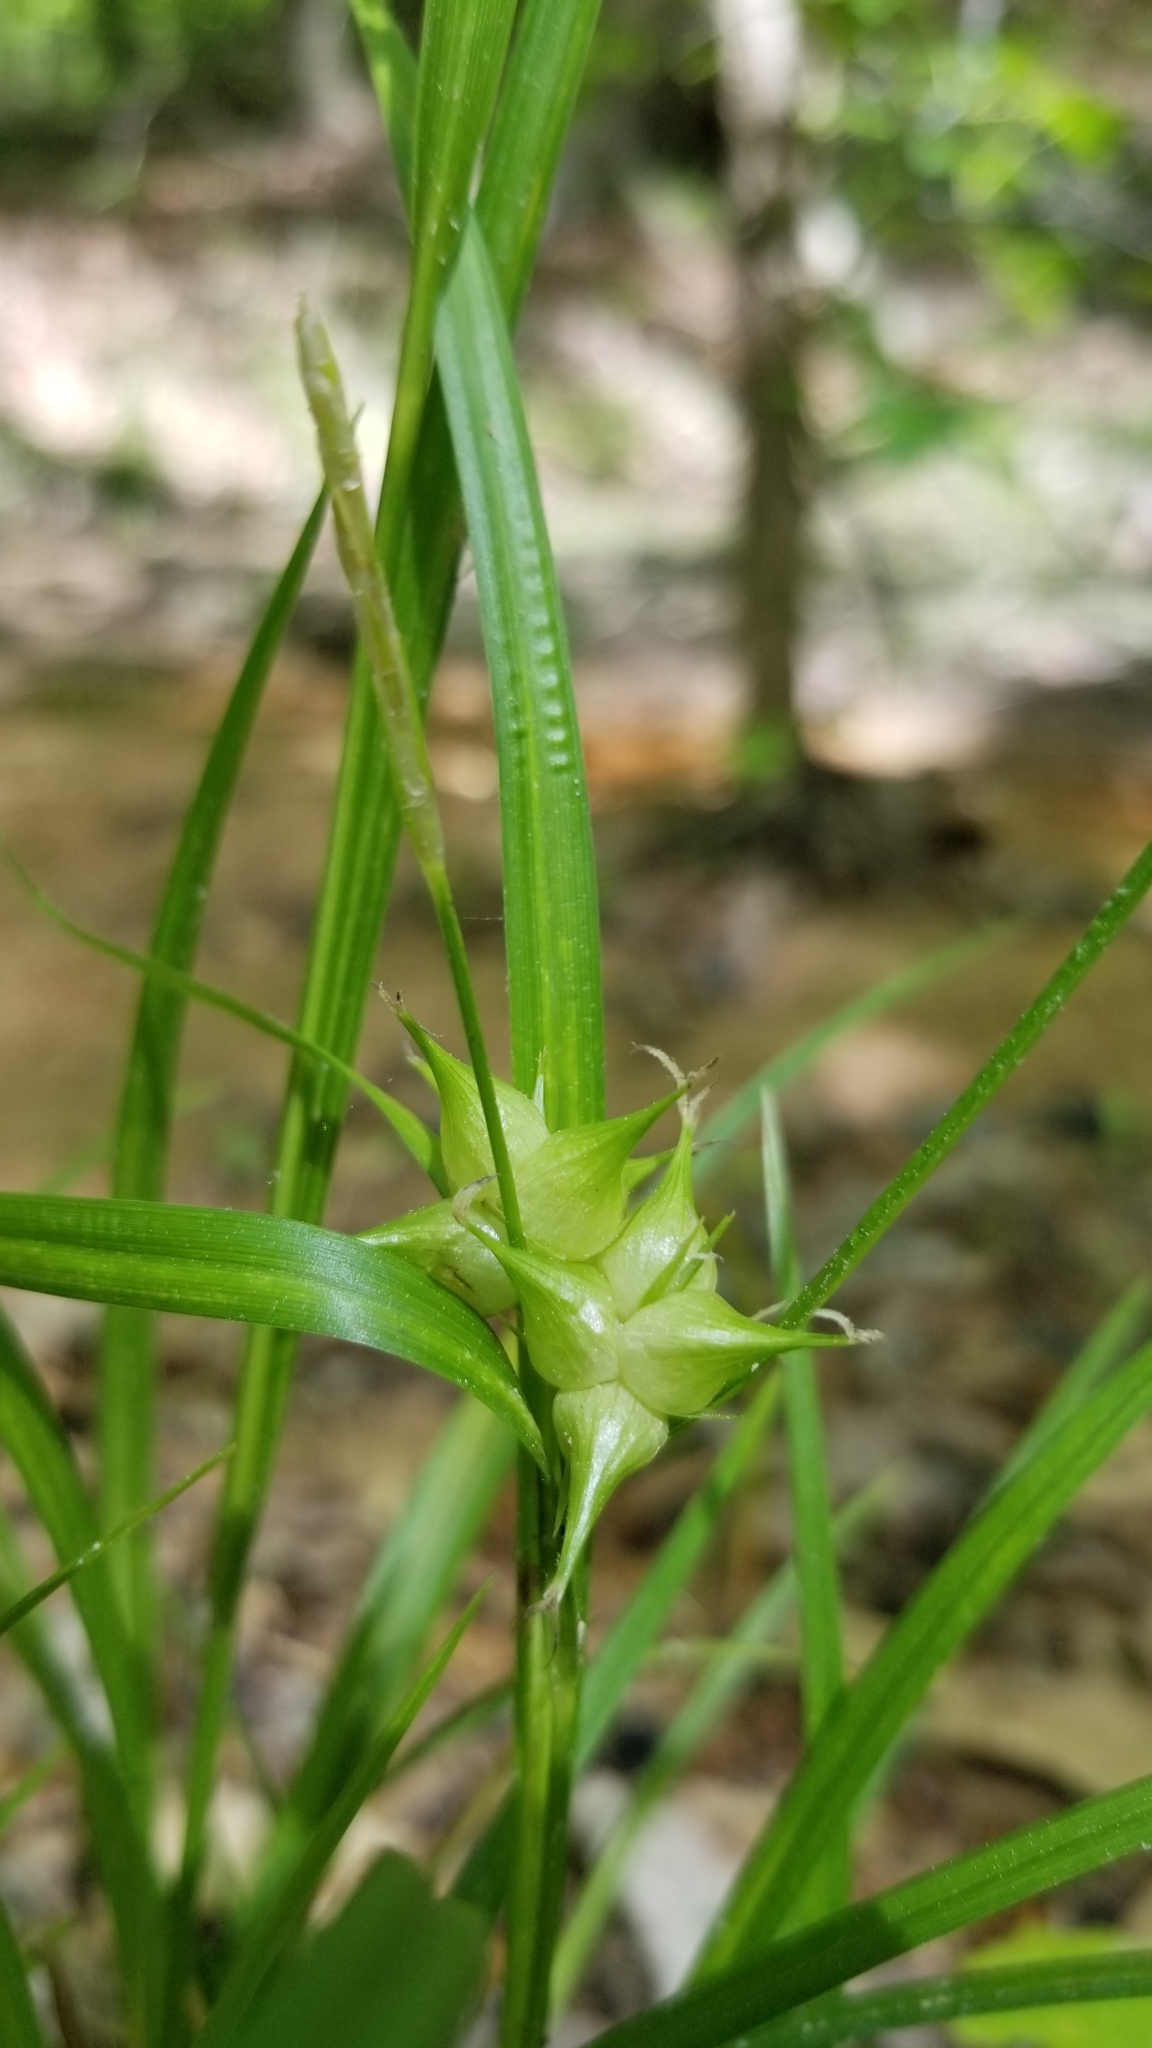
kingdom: Plantae
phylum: Tracheophyta
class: Liliopsida
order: Poales
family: Cyperaceae
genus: Carex
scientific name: Carex intumescens
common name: Greater bladder sedge
